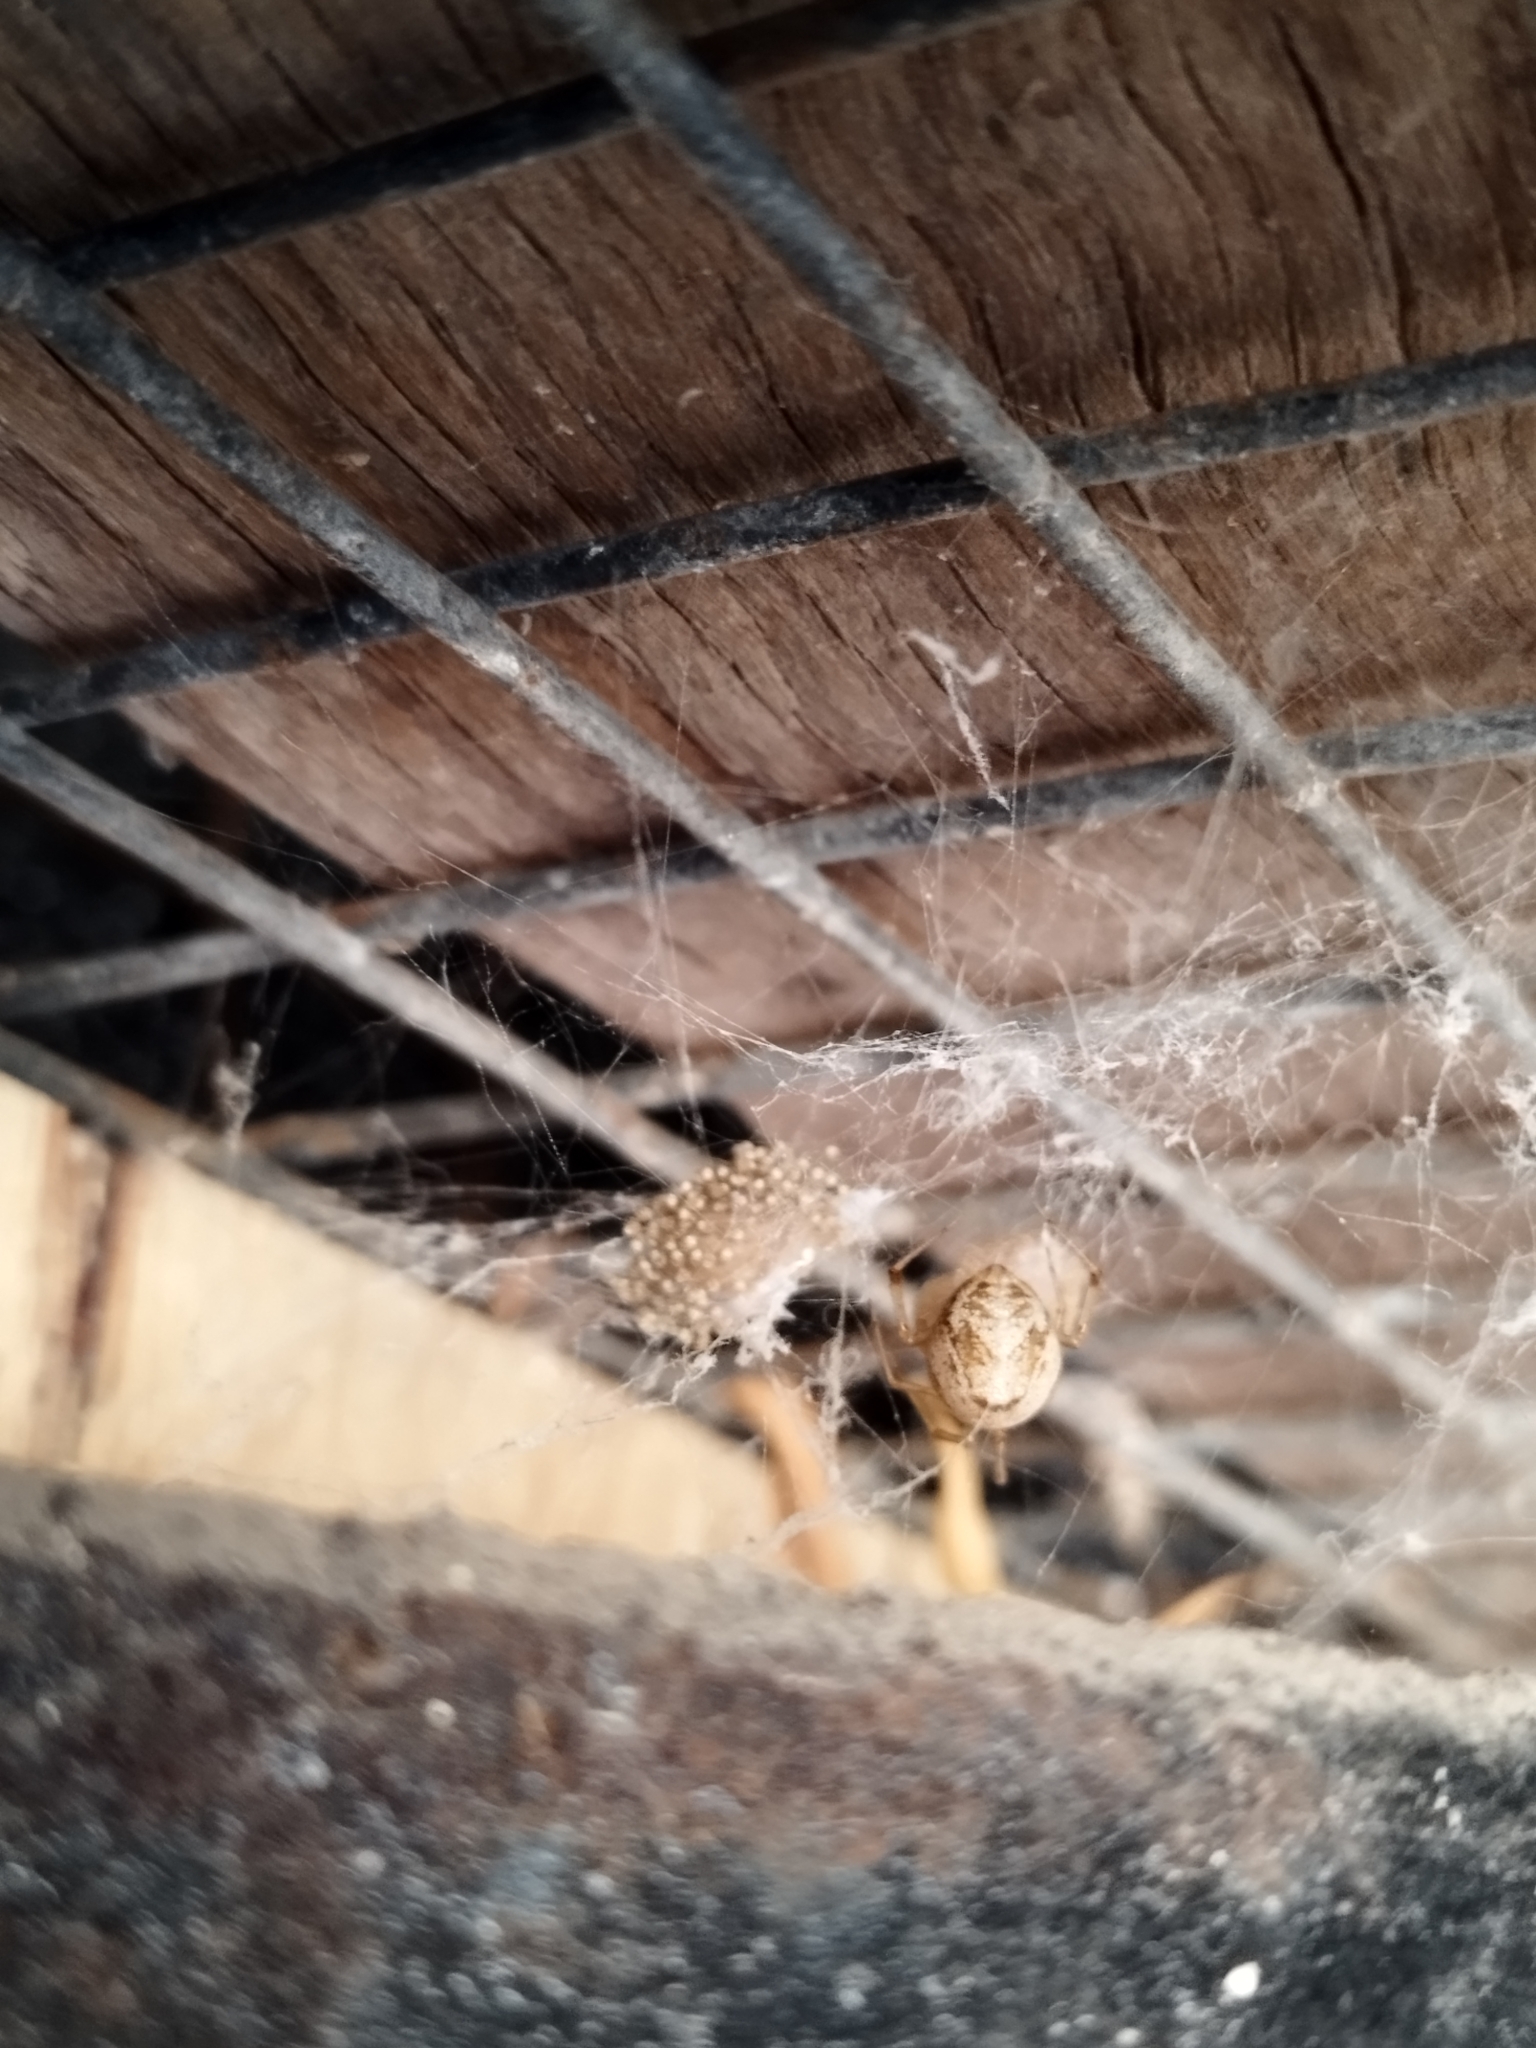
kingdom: Animalia
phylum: Arthropoda
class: Arachnida
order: Araneae
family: Theridiidae
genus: Parasteatoda
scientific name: Parasteatoda tepidariorum
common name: Common house spider
